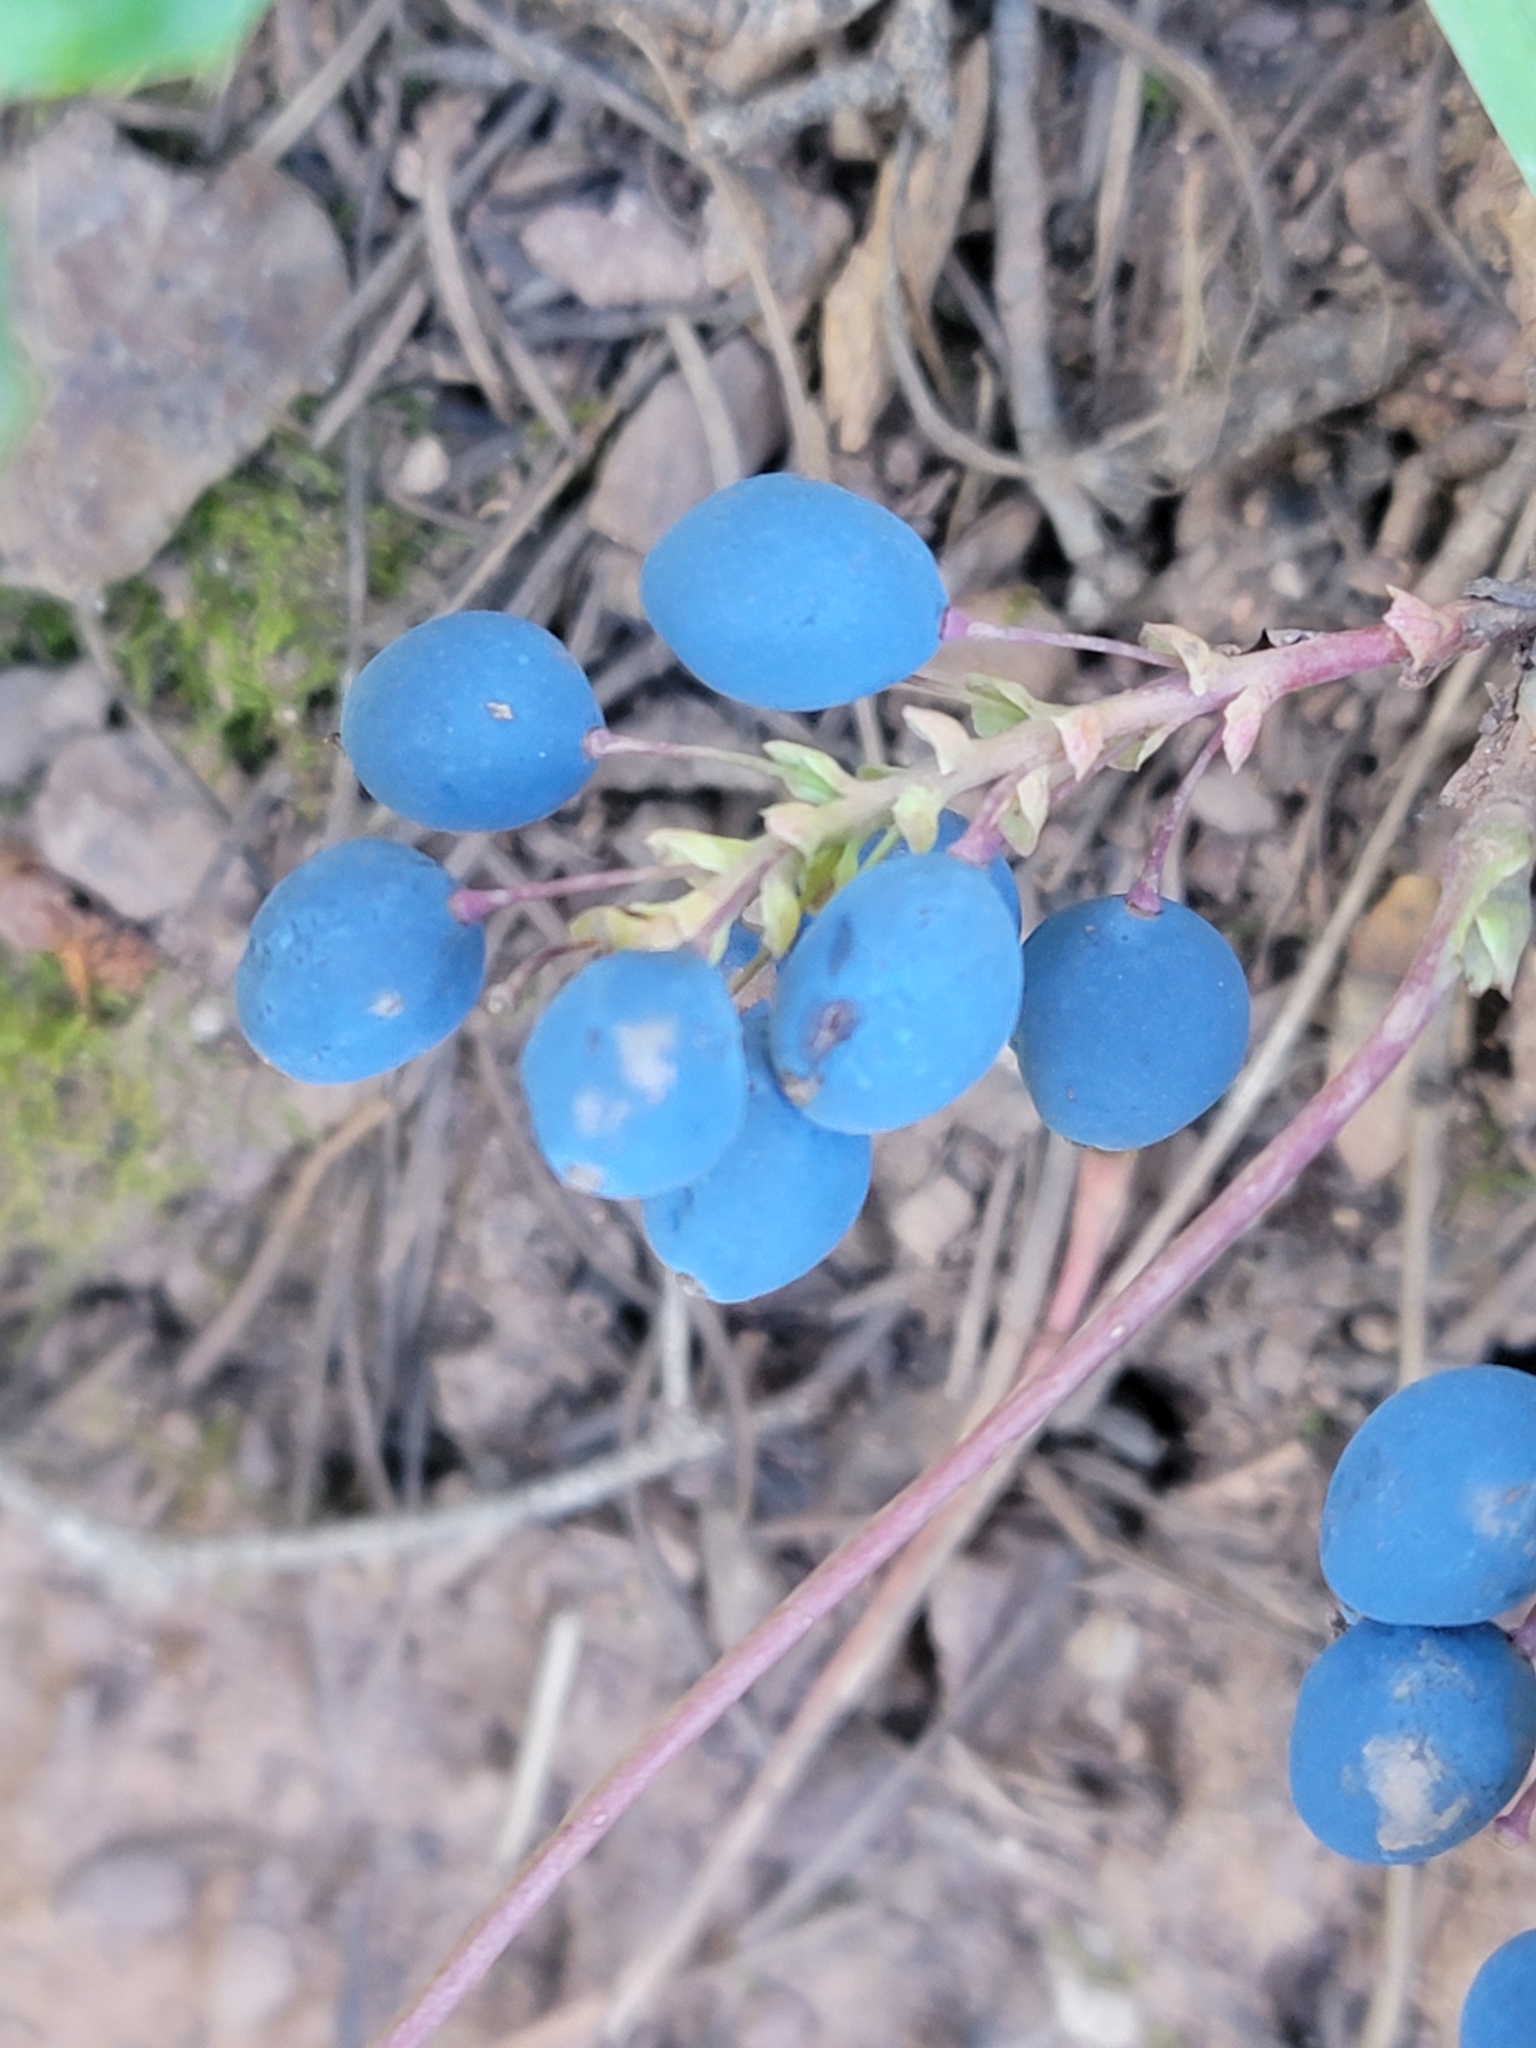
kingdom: Plantae
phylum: Tracheophyta
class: Magnoliopsida
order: Ranunculales
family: Berberidaceae
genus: Mahonia
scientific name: Mahonia repens
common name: Creeping oregon-grape
